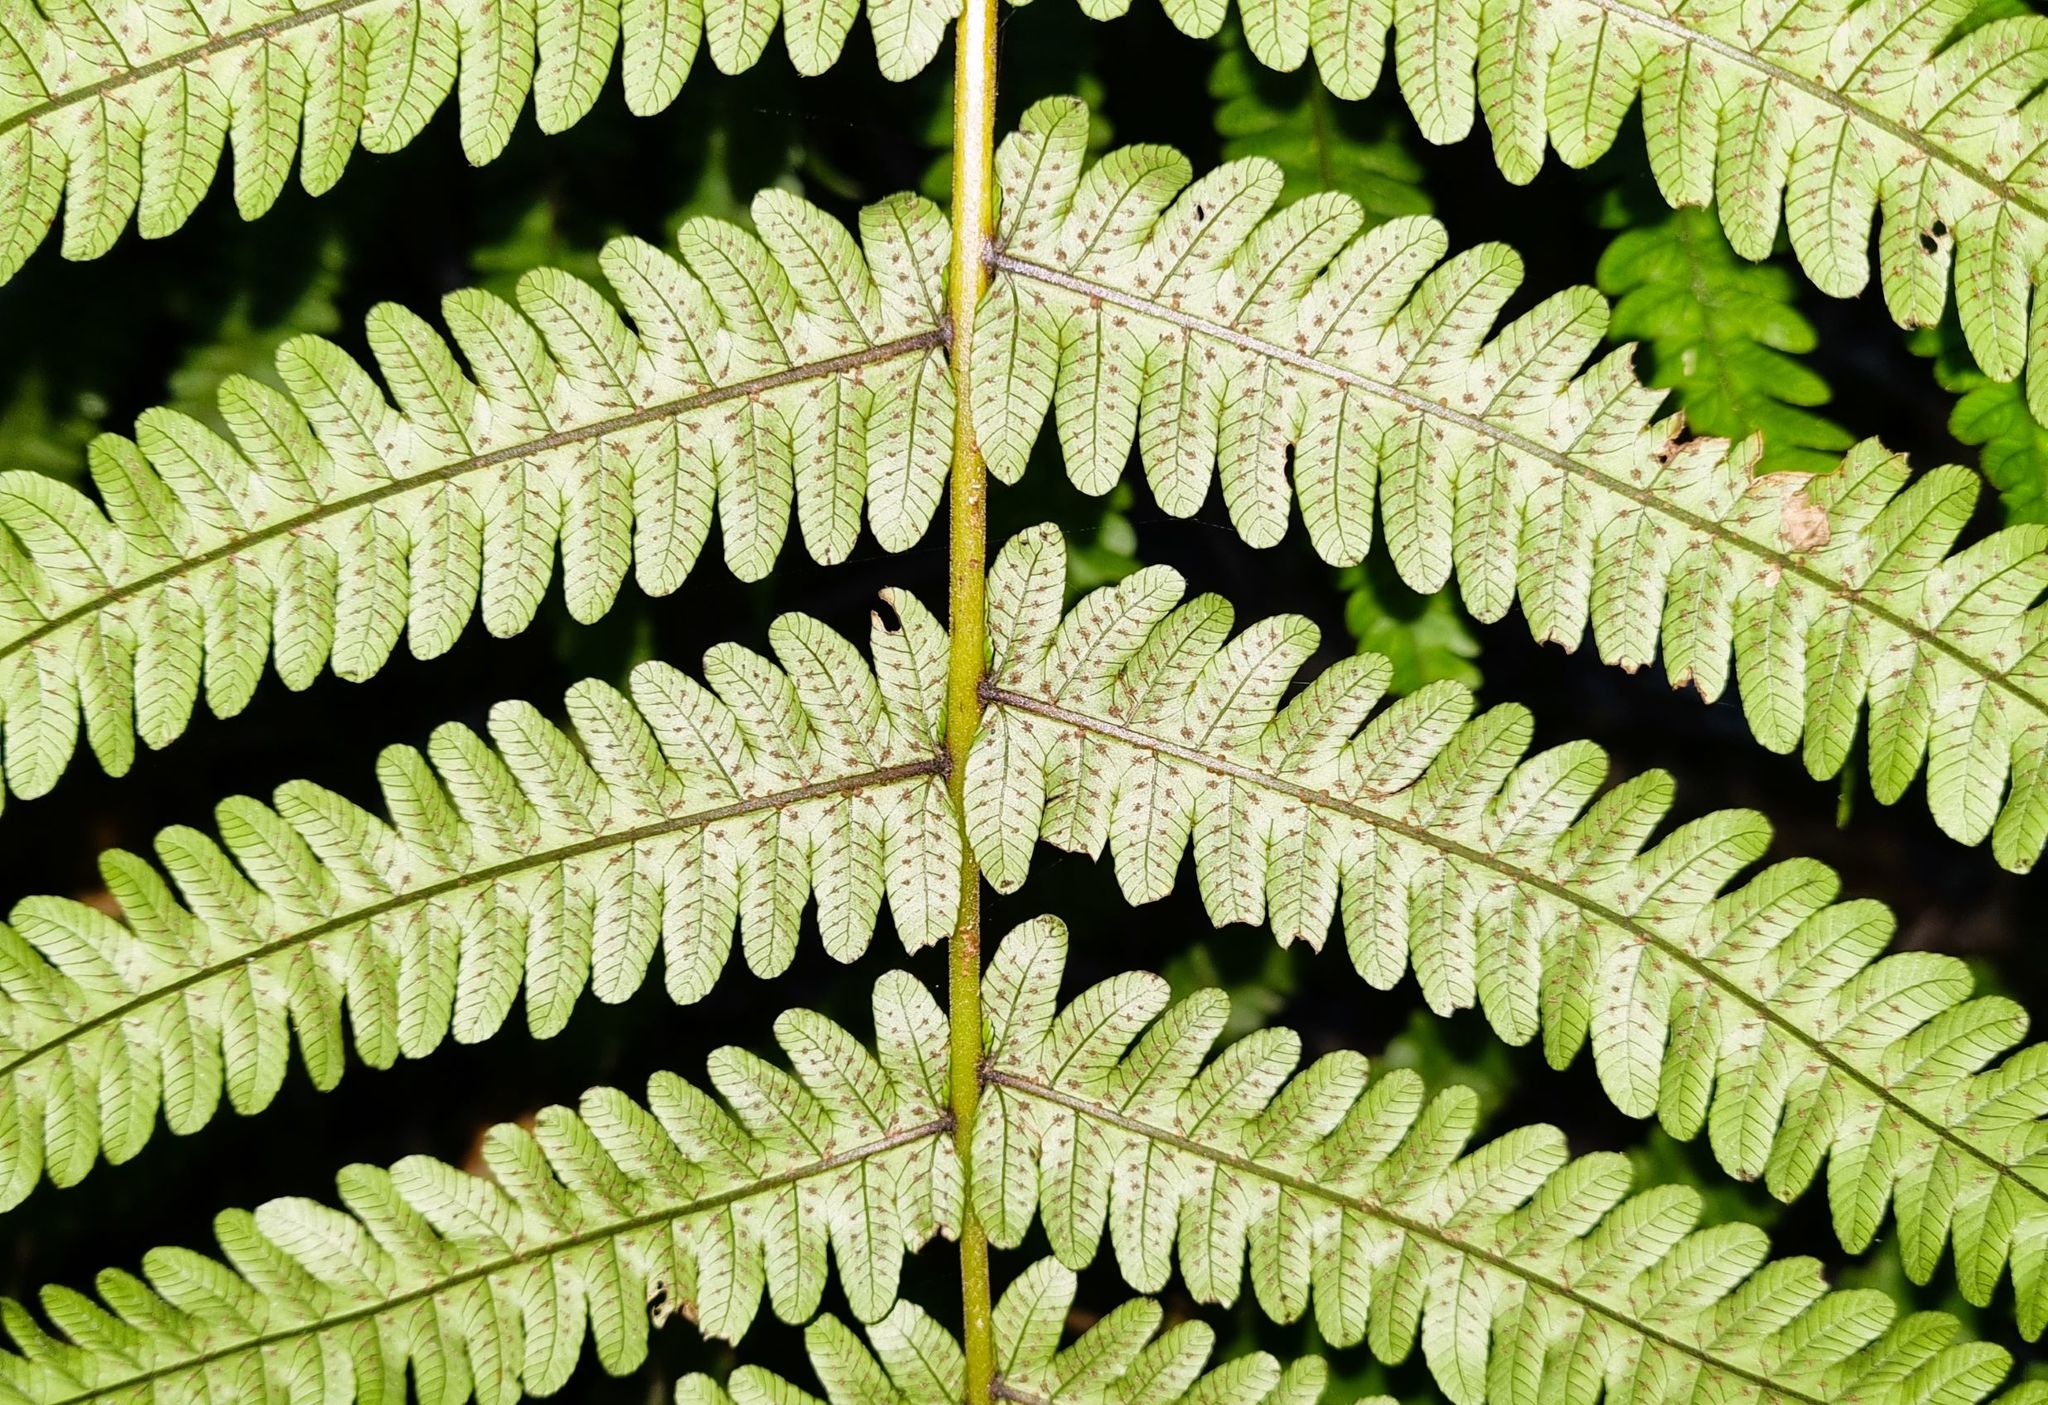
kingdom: Plantae
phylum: Tracheophyta
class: Polypodiopsida
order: Polypodiales
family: Thelypteridaceae
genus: Pakau
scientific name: Pakau pennigera
